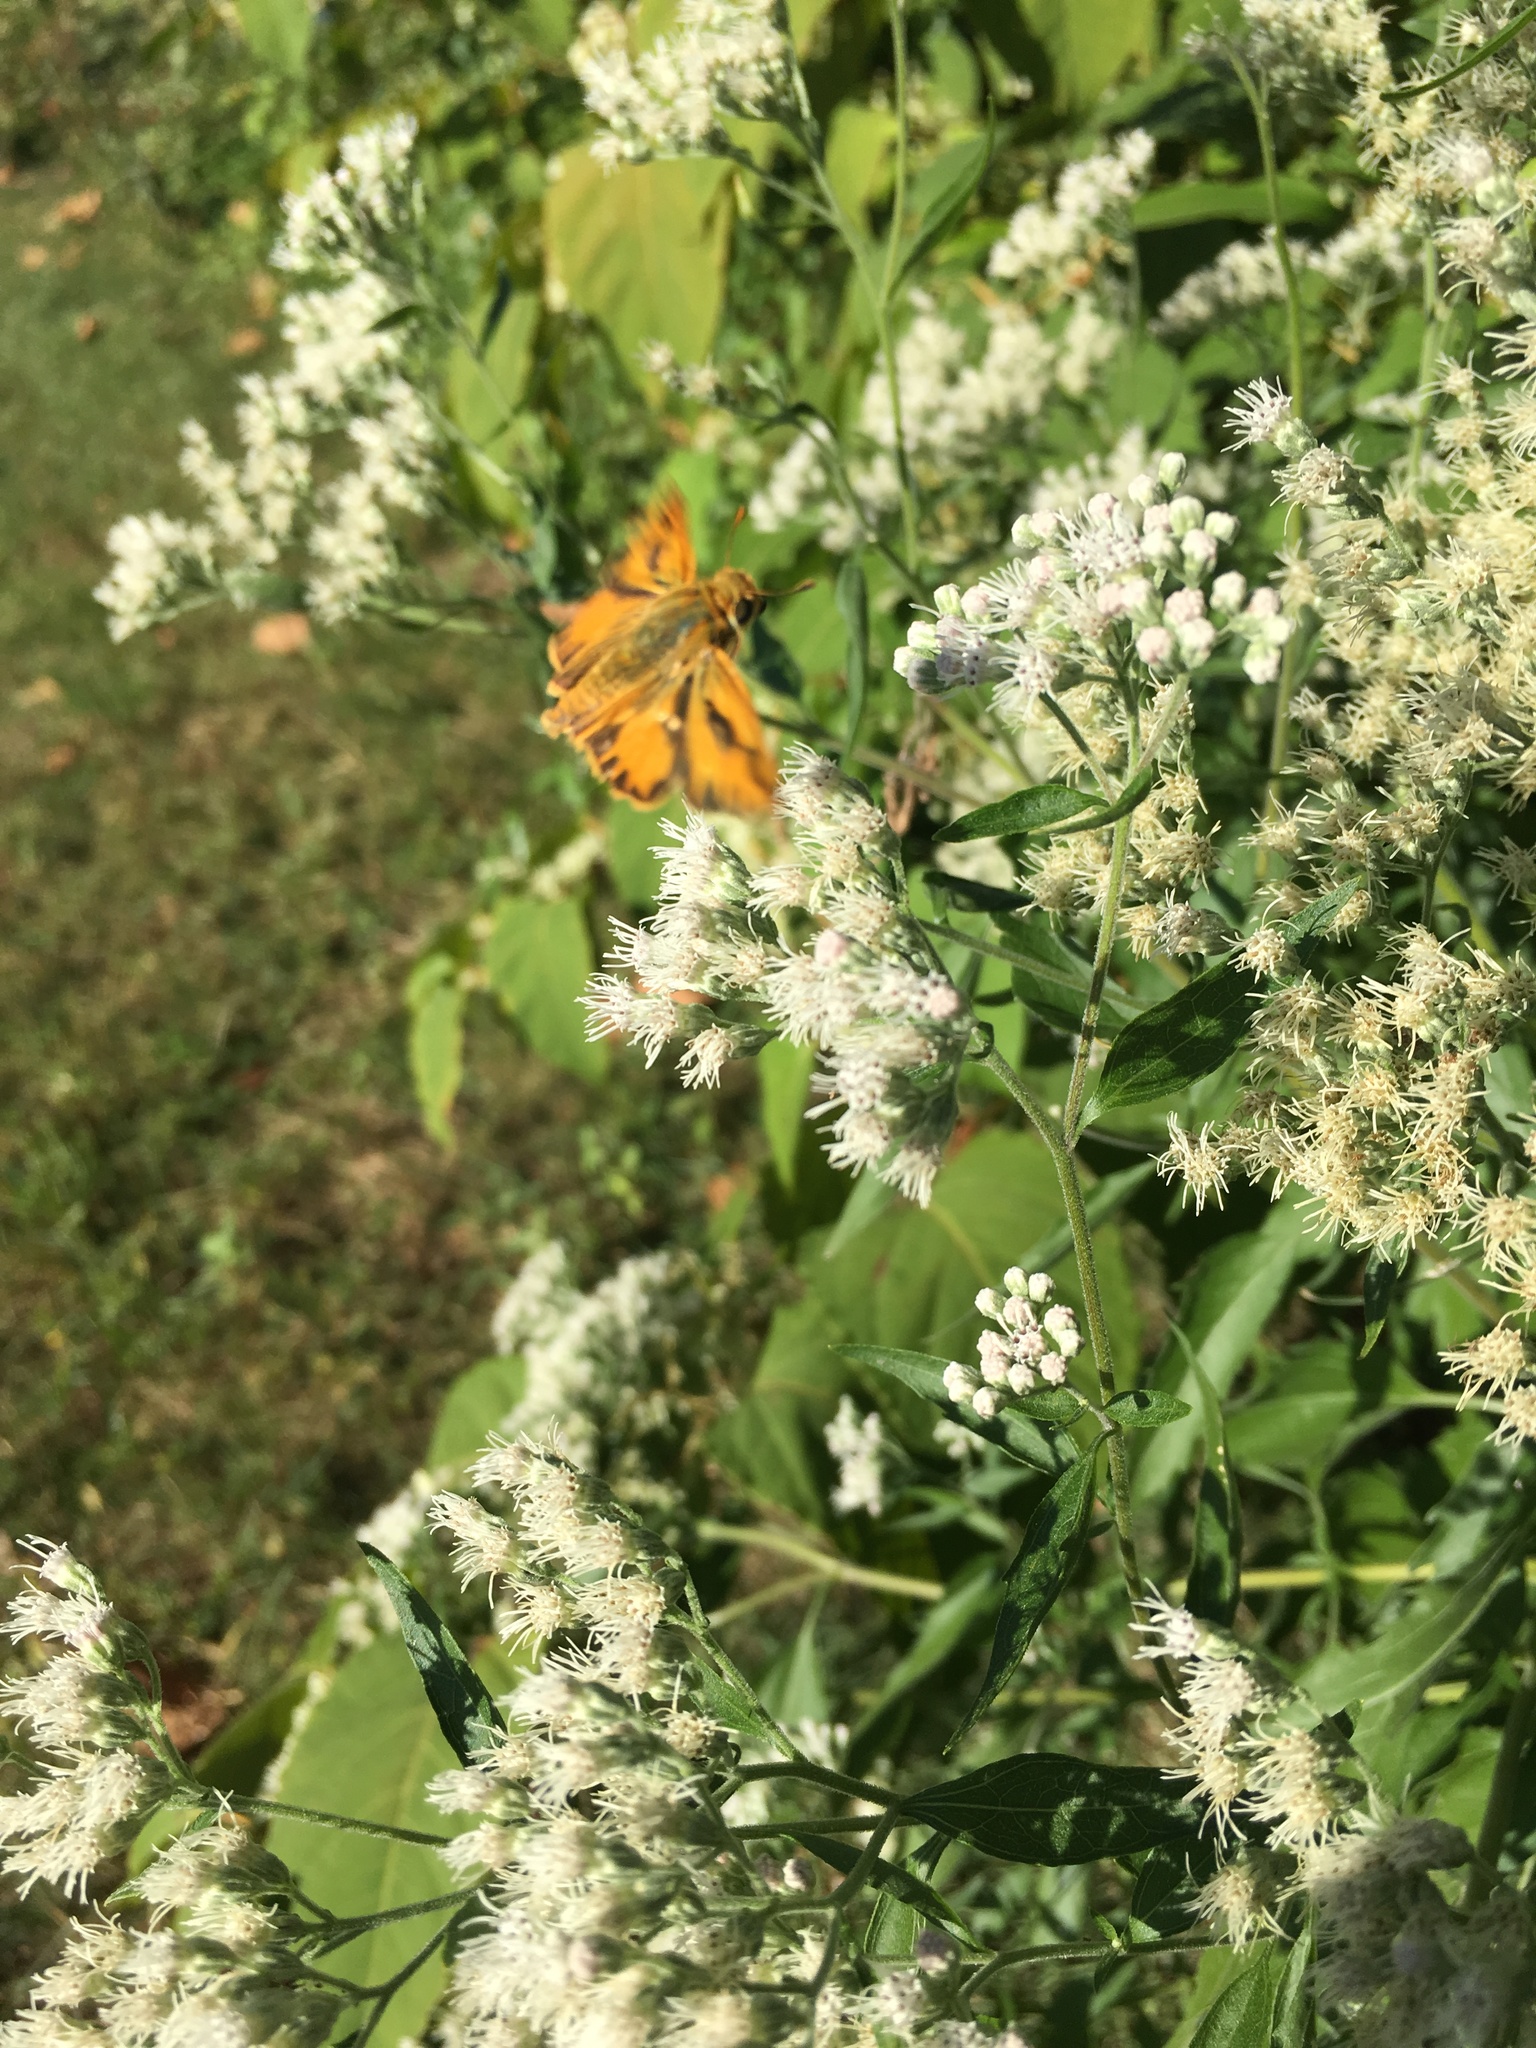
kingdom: Animalia
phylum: Arthropoda
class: Insecta
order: Lepidoptera
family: Hesperiidae
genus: Hylephila
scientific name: Hylephila phyleus
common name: Fiery skipper
